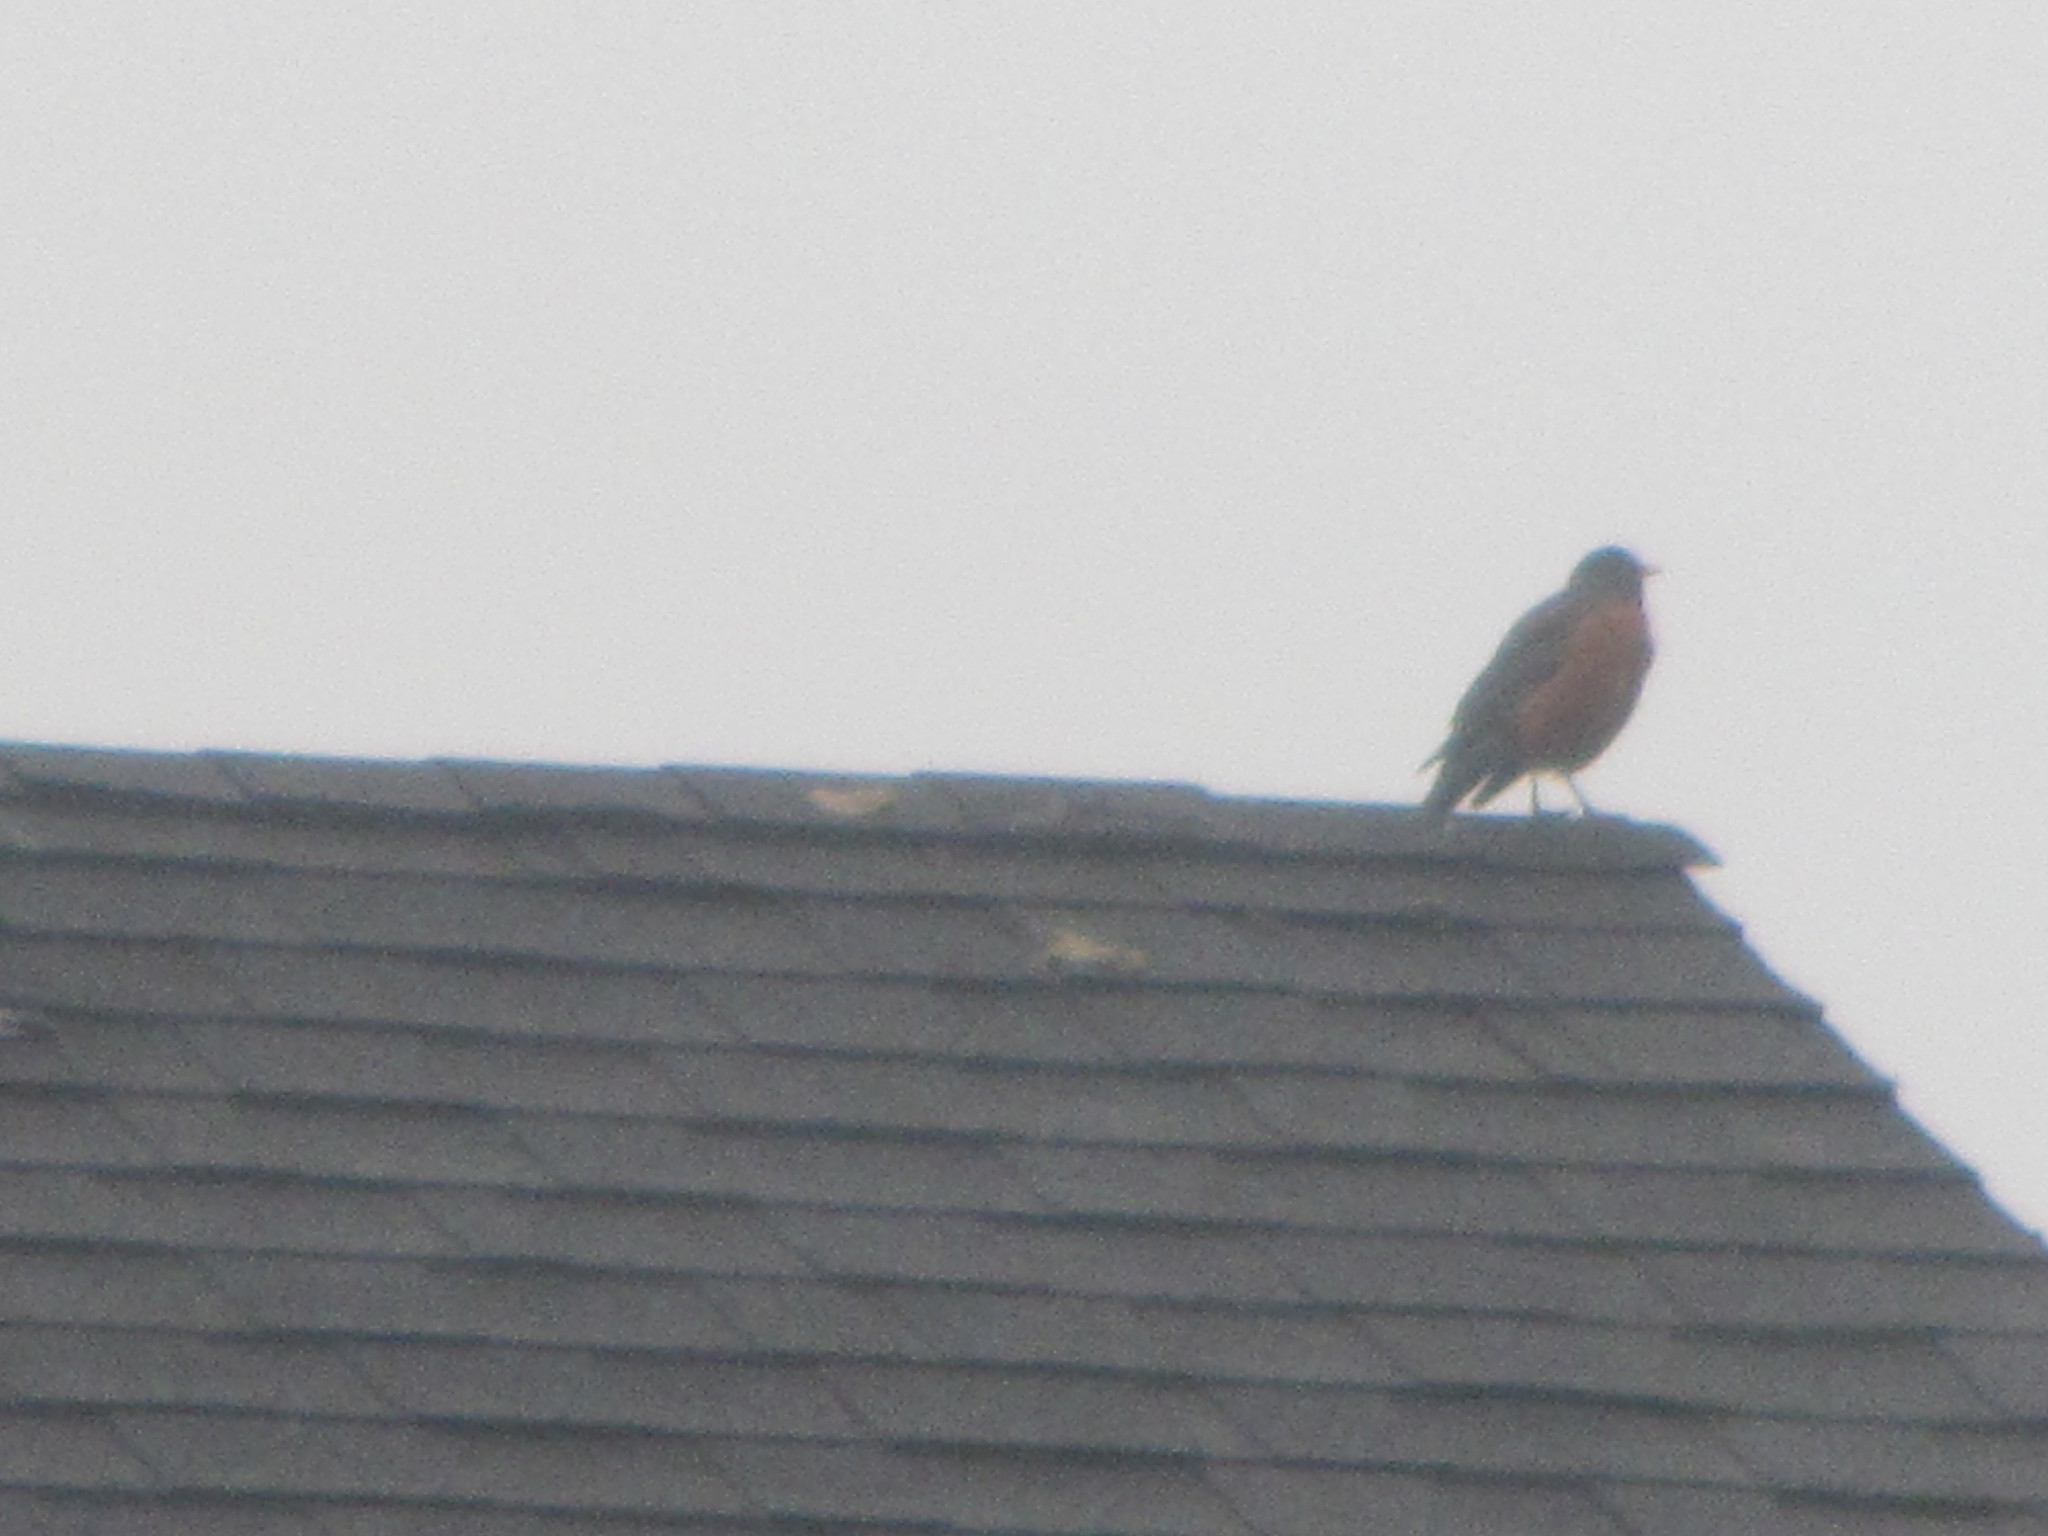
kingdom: Animalia
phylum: Chordata
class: Aves
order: Passeriformes
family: Turdidae
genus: Turdus
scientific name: Turdus migratorius
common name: American robin
